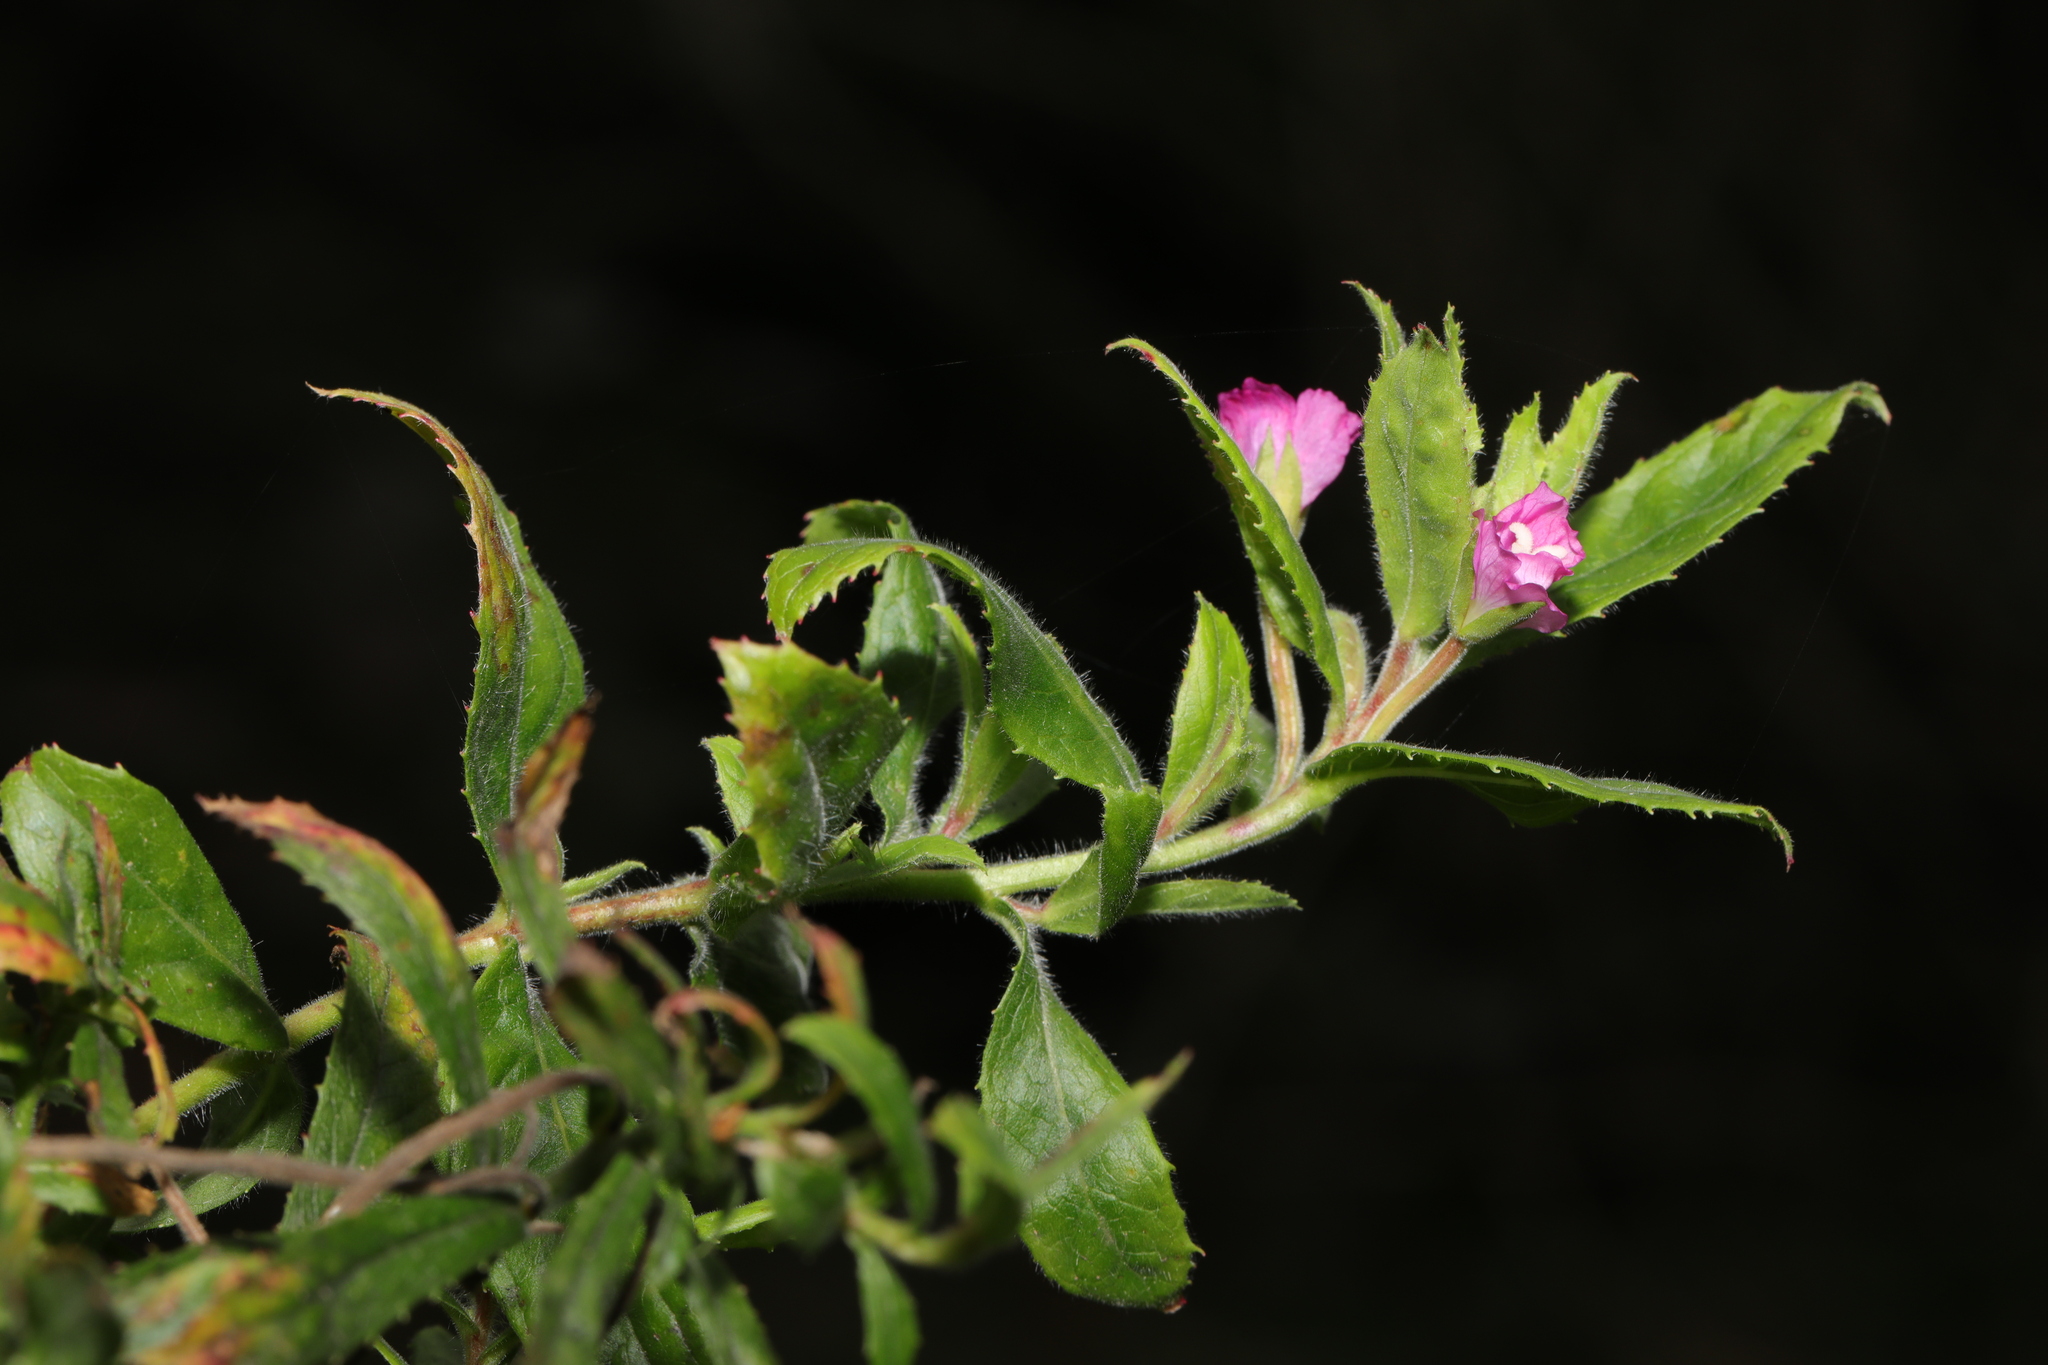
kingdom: Plantae
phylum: Tracheophyta
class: Magnoliopsida
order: Myrtales
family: Onagraceae
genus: Epilobium
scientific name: Epilobium hirsutum
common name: Great willowherb
